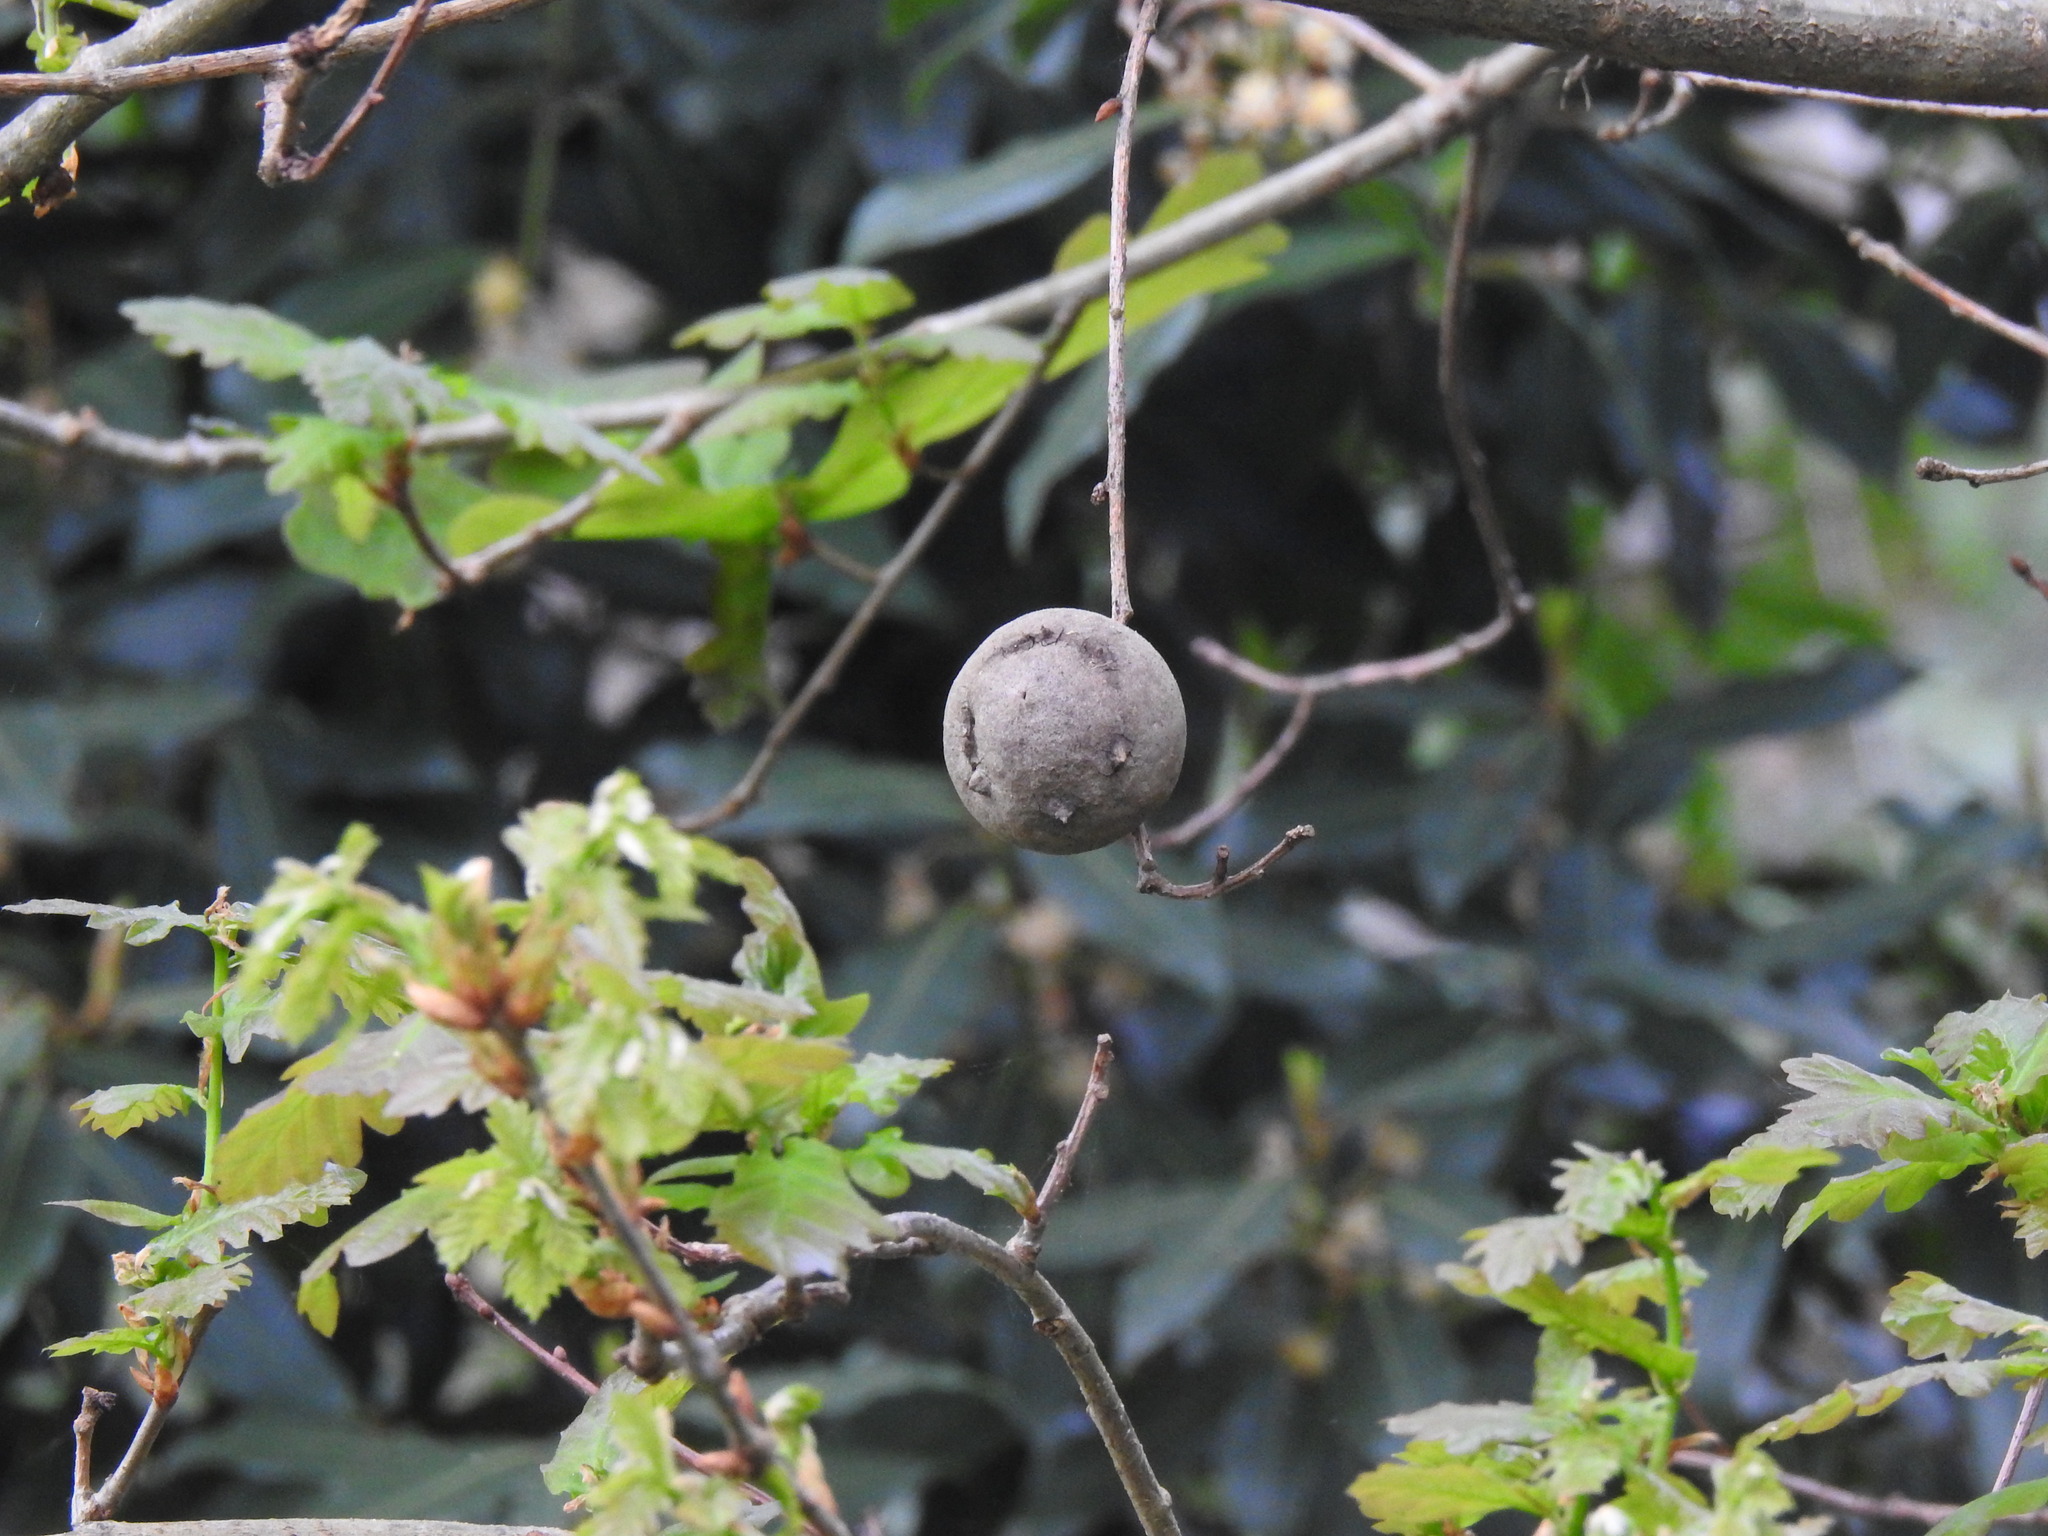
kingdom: Animalia
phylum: Arthropoda
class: Insecta
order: Hymenoptera
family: Cynipidae
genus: Andricus
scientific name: Andricus quercustozae
